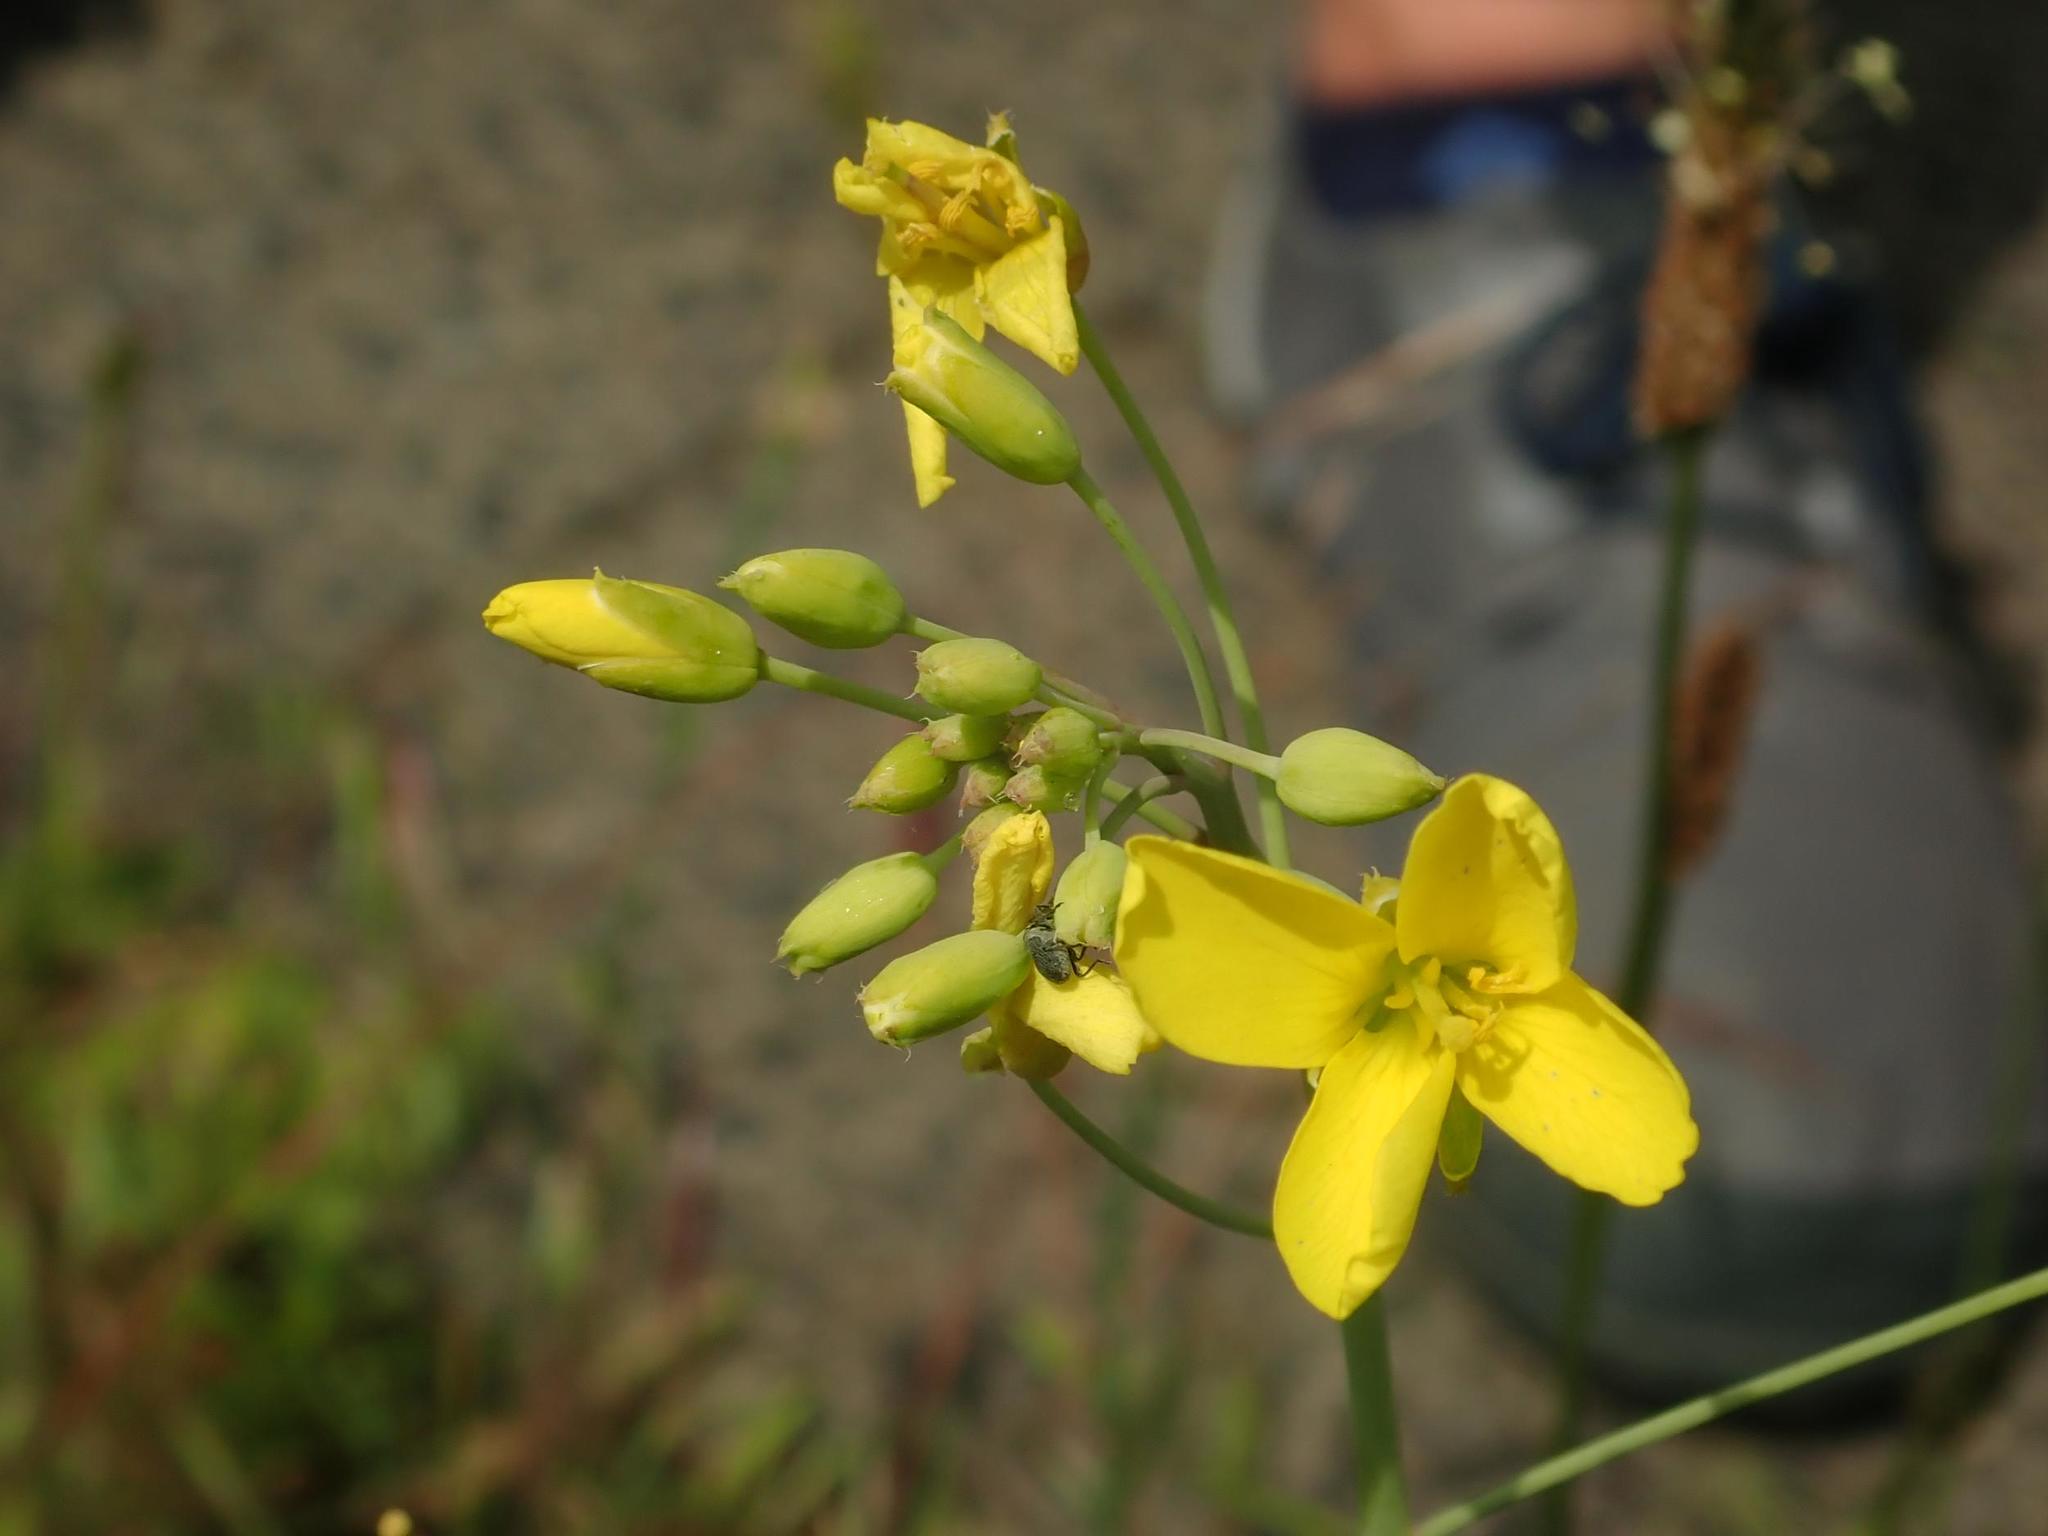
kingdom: Plantae
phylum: Tracheophyta
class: Magnoliopsida
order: Brassicales
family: Brassicaceae
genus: Diplotaxis
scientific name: Diplotaxis tenuifolia
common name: Perennial wall-rocket
